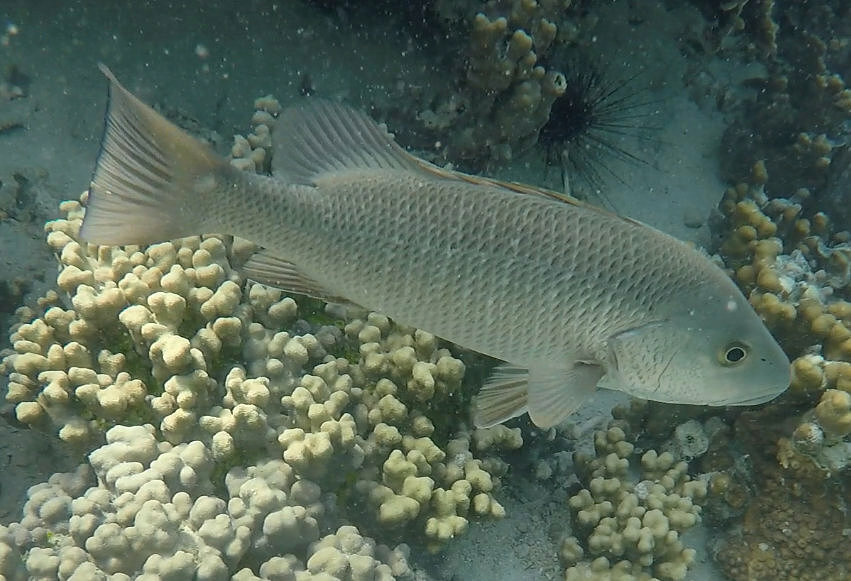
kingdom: Animalia
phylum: Chordata
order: Perciformes
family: Lutjanidae
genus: Lutjanus
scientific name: Lutjanus argentimaculatus
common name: Mangrove red snapper
